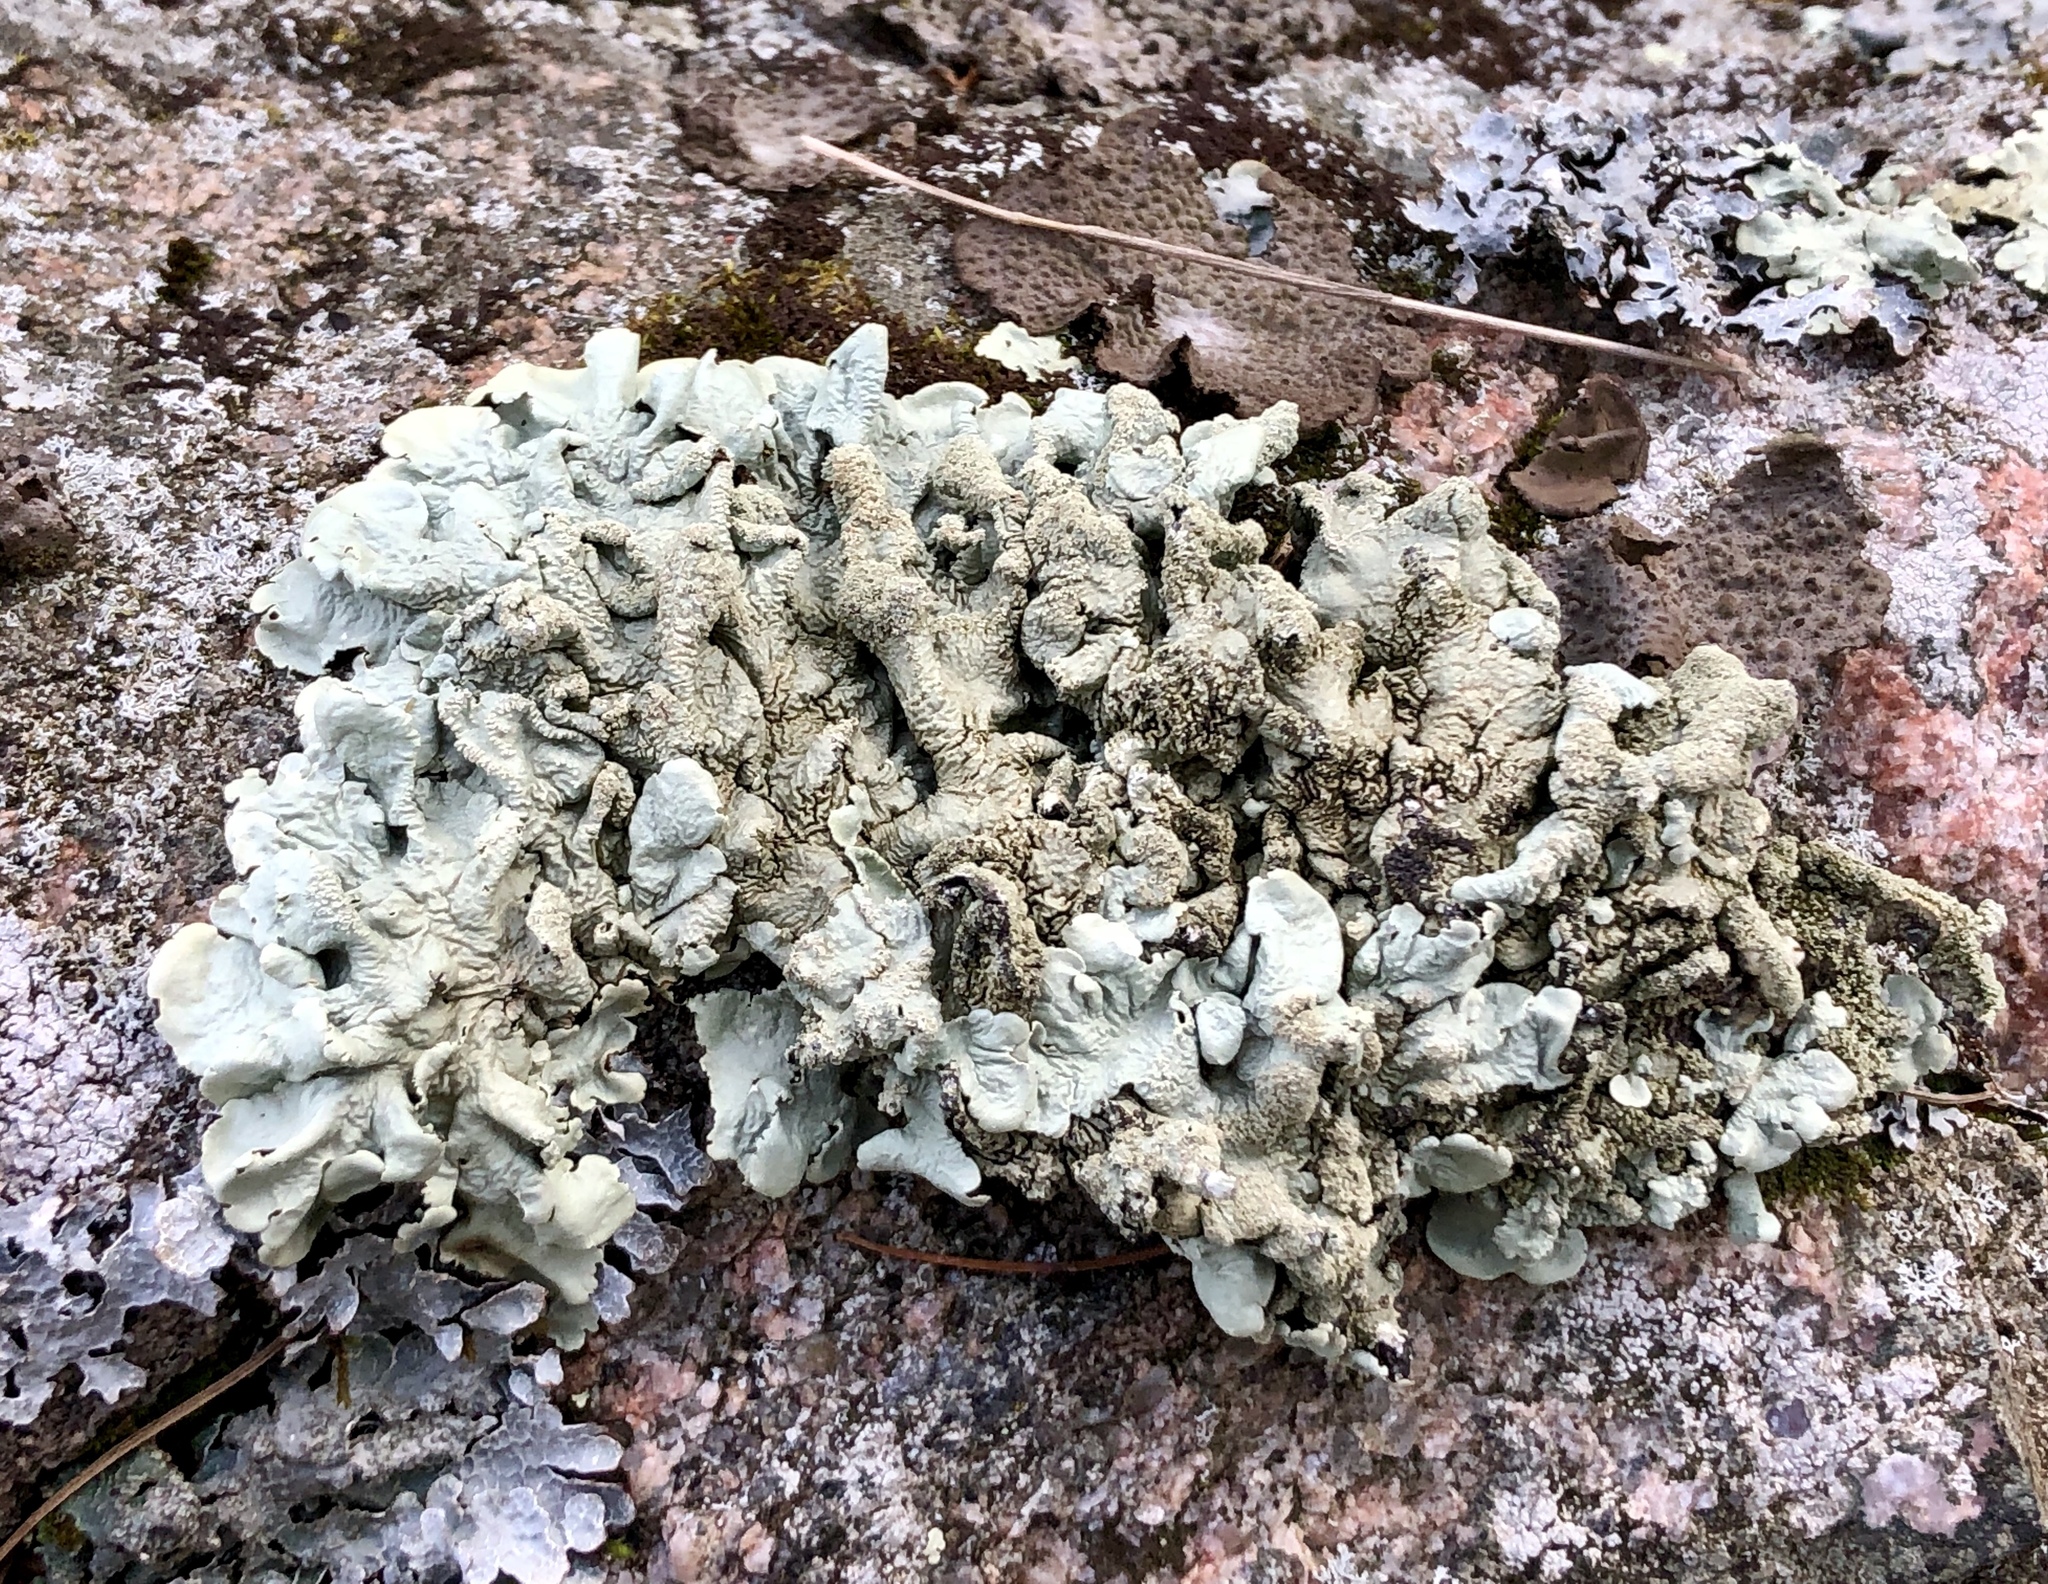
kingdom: Fungi
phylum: Ascomycota
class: Lecanoromycetes
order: Lecanorales
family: Parmeliaceae
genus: Flavoparmelia
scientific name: Flavoparmelia caperata
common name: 40-mile per hour lichen
